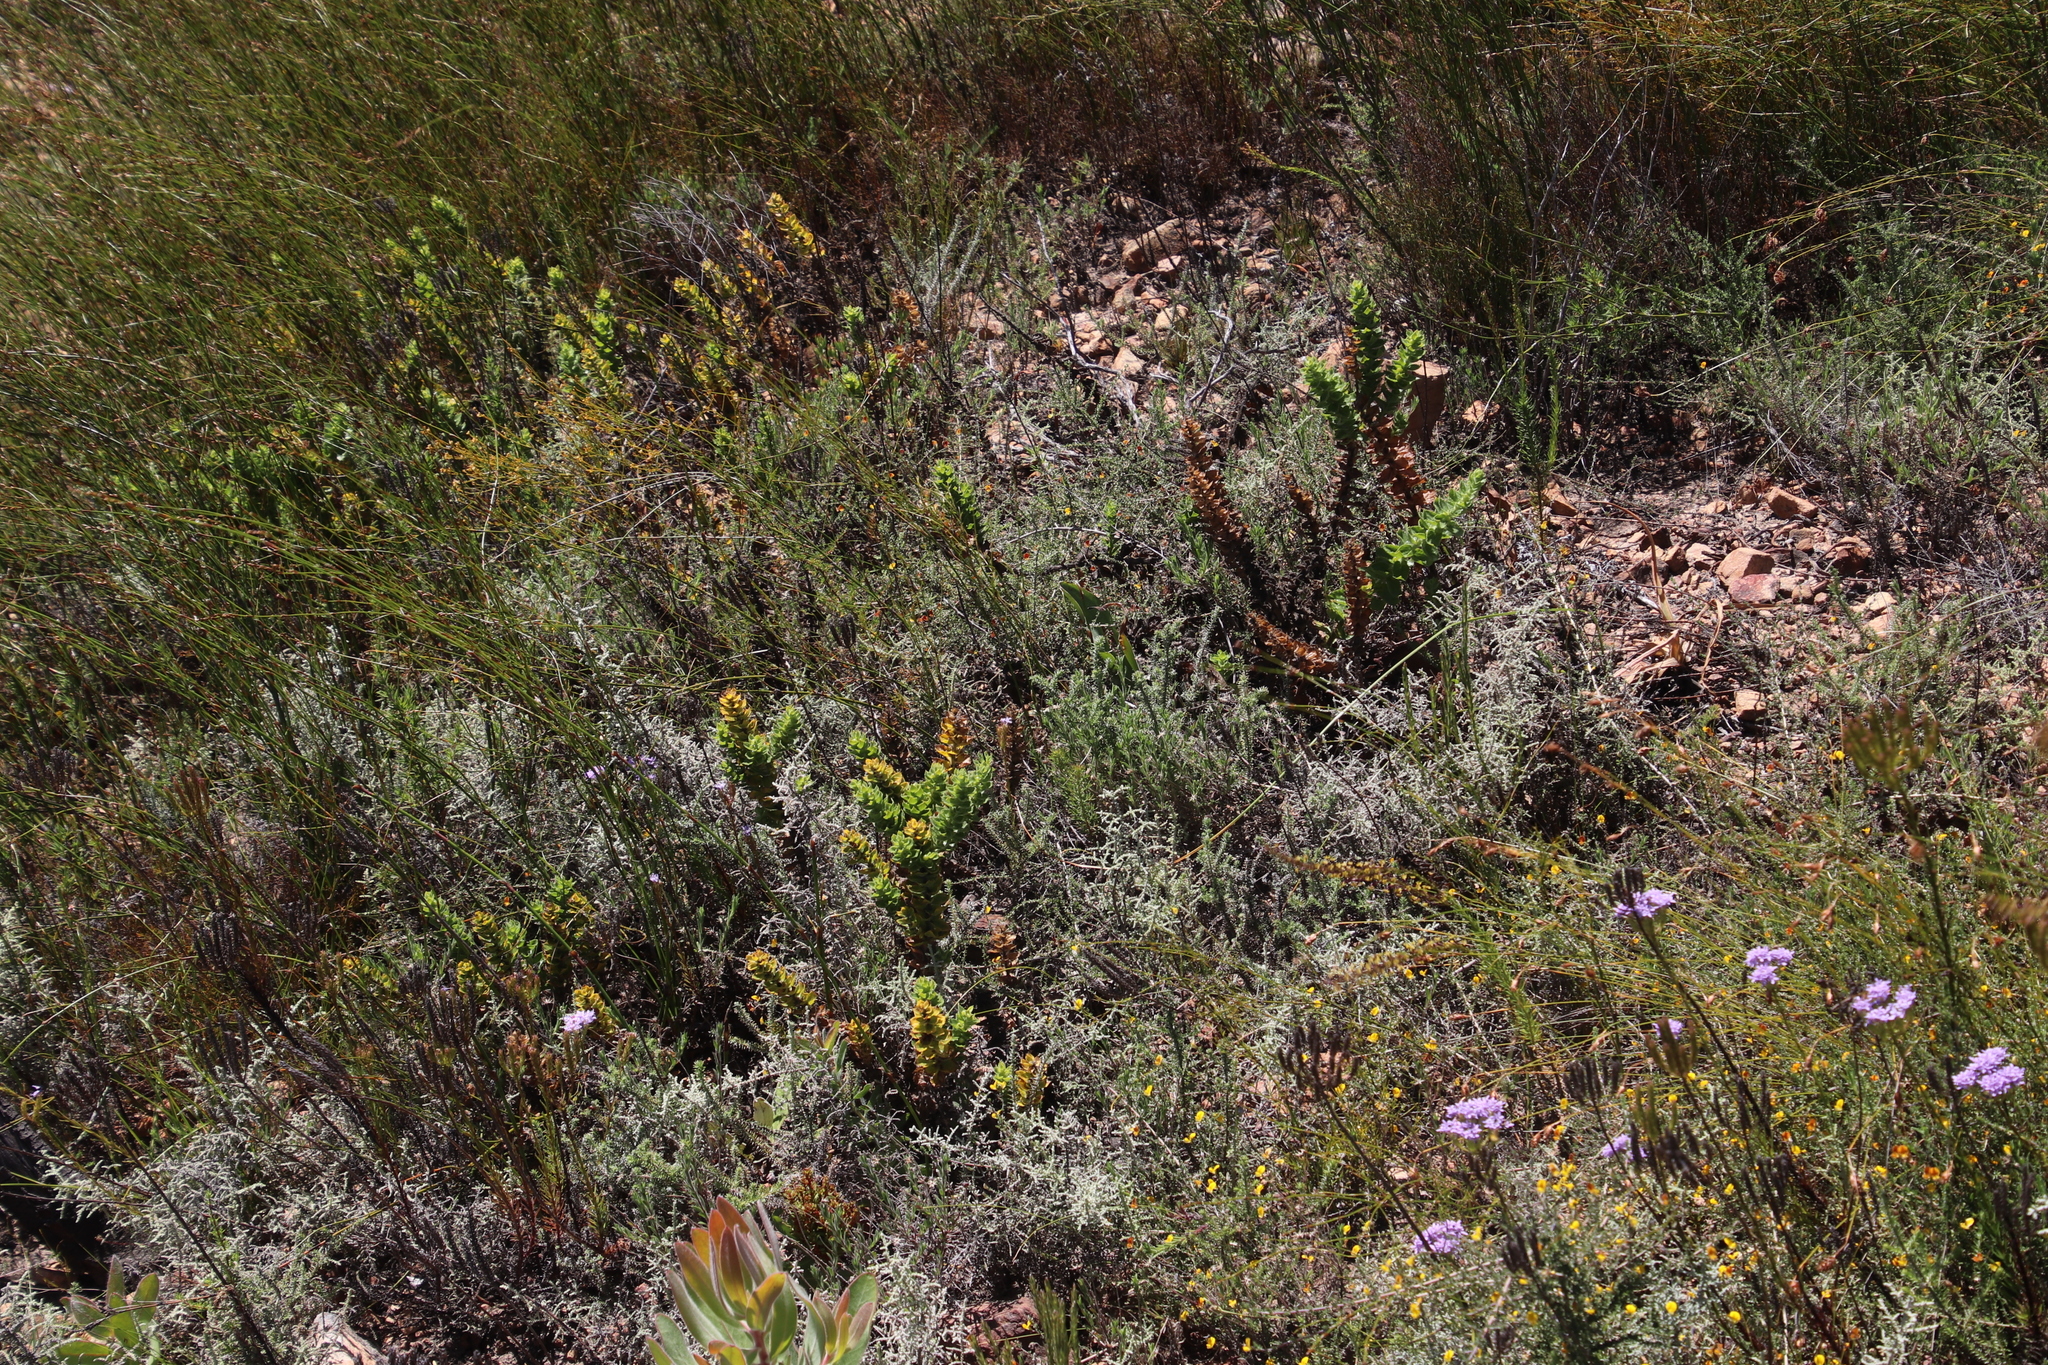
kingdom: Plantae
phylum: Tracheophyta
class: Magnoliopsida
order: Lamiales
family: Scrophulariaceae
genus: Oftia
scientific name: Oftia africana
